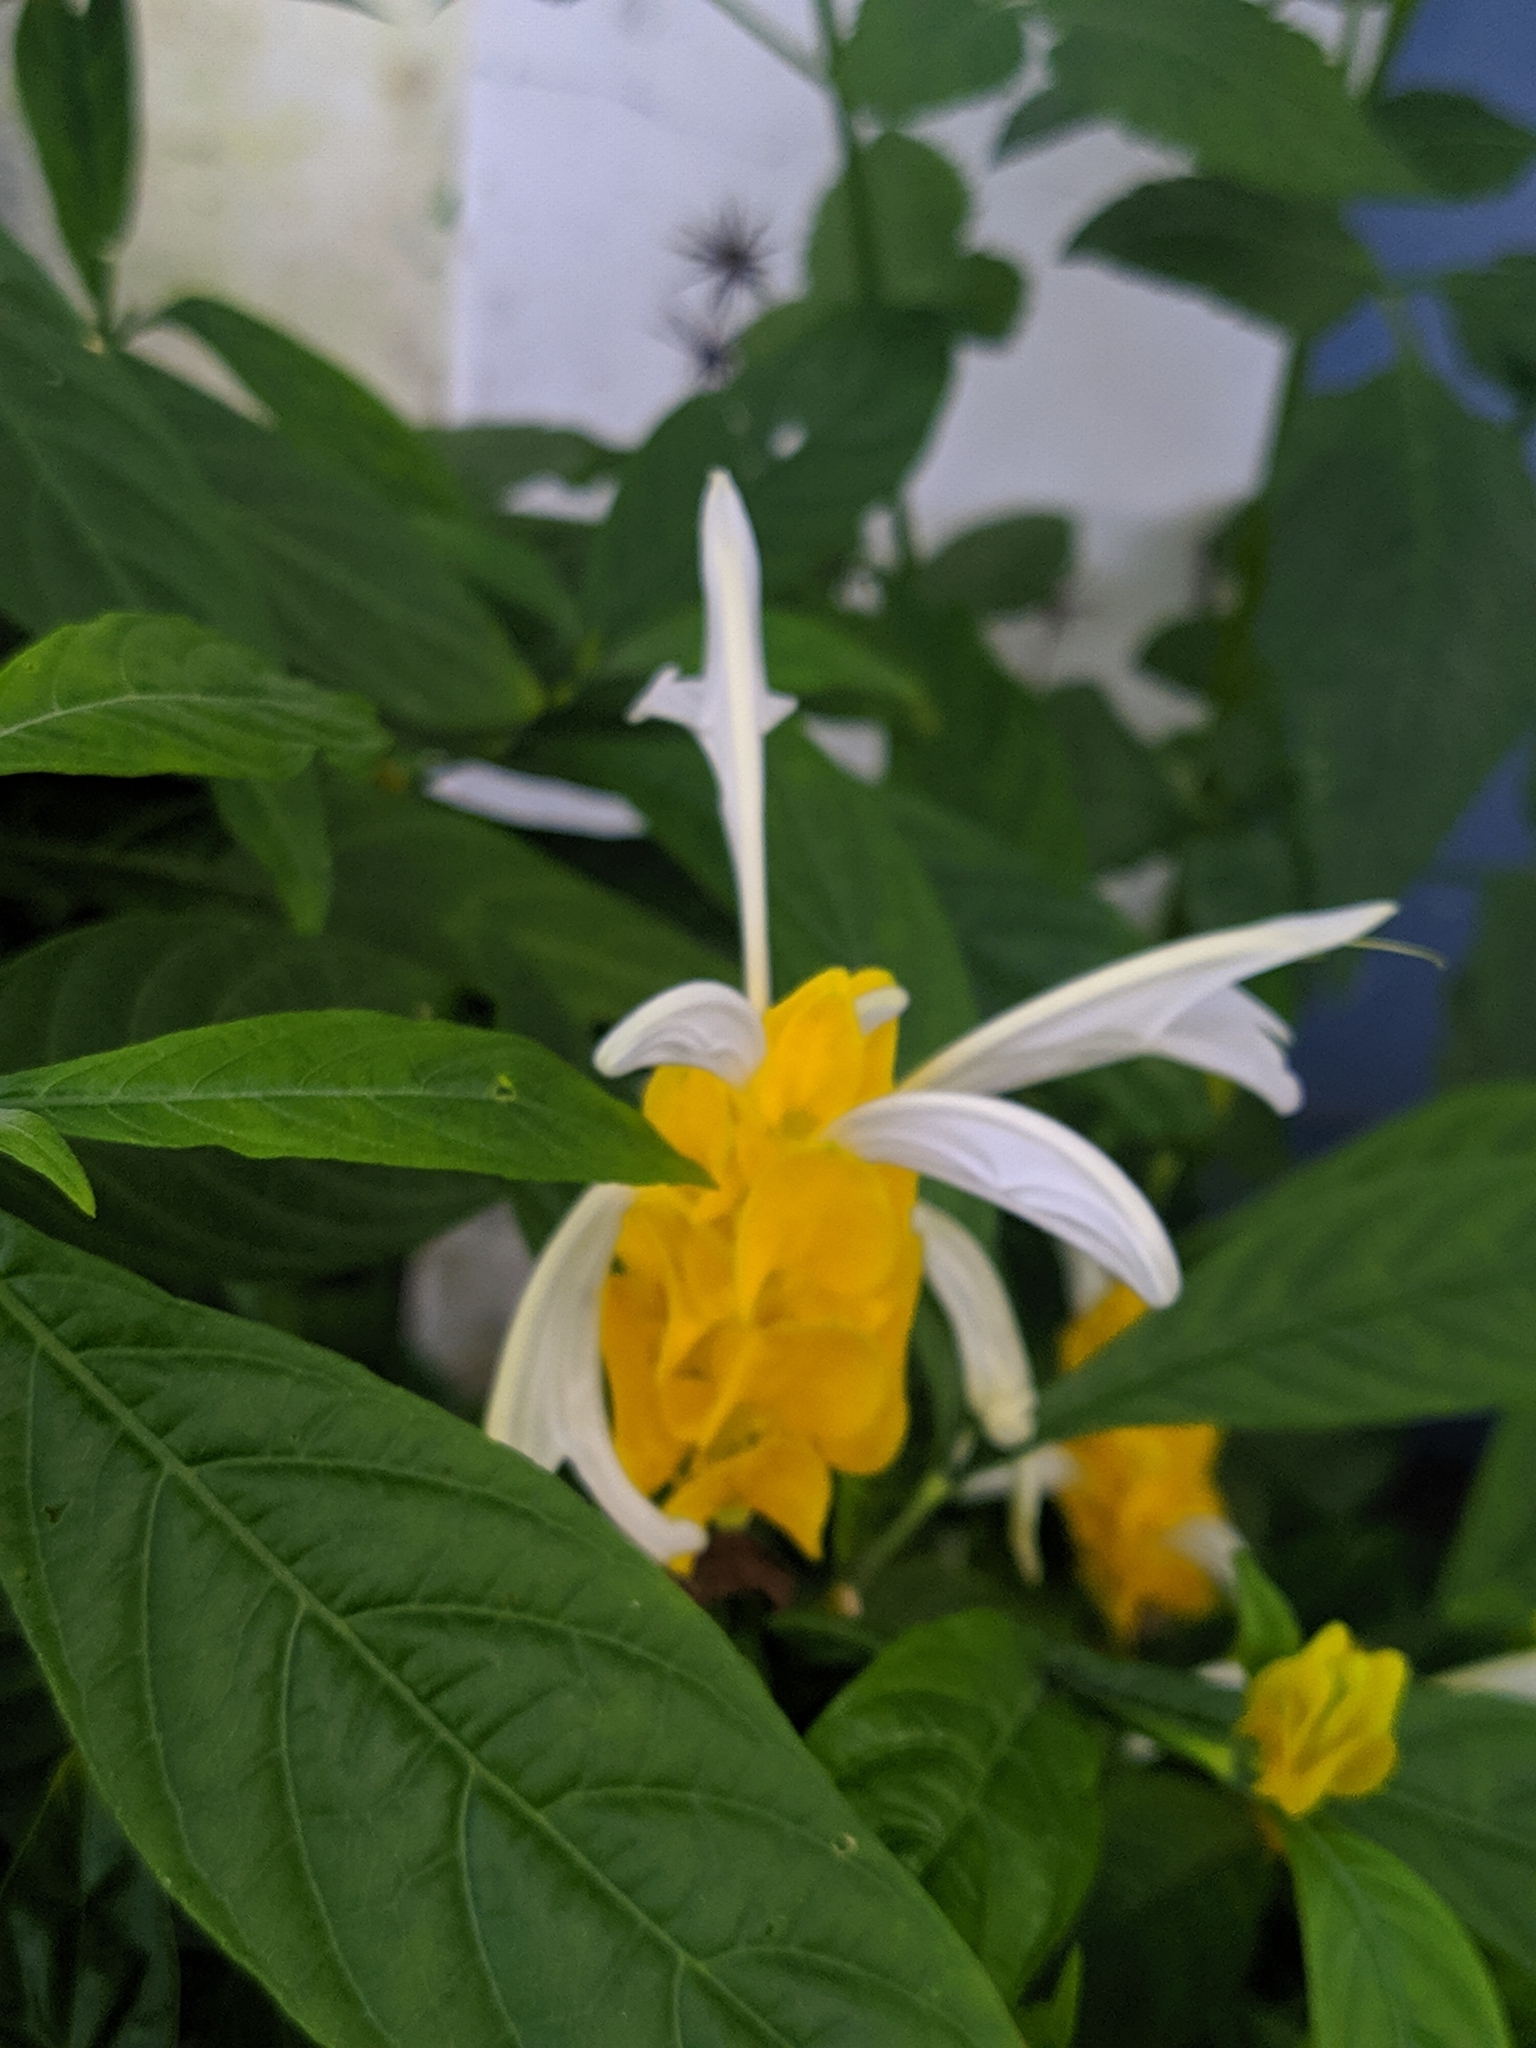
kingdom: Plantae
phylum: Tracheophyta
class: Magnoliopsida
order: Lamiales
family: Acanthaceae
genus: Pachystachys
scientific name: Pachystachys lutea
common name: Golden shrimp-plant
